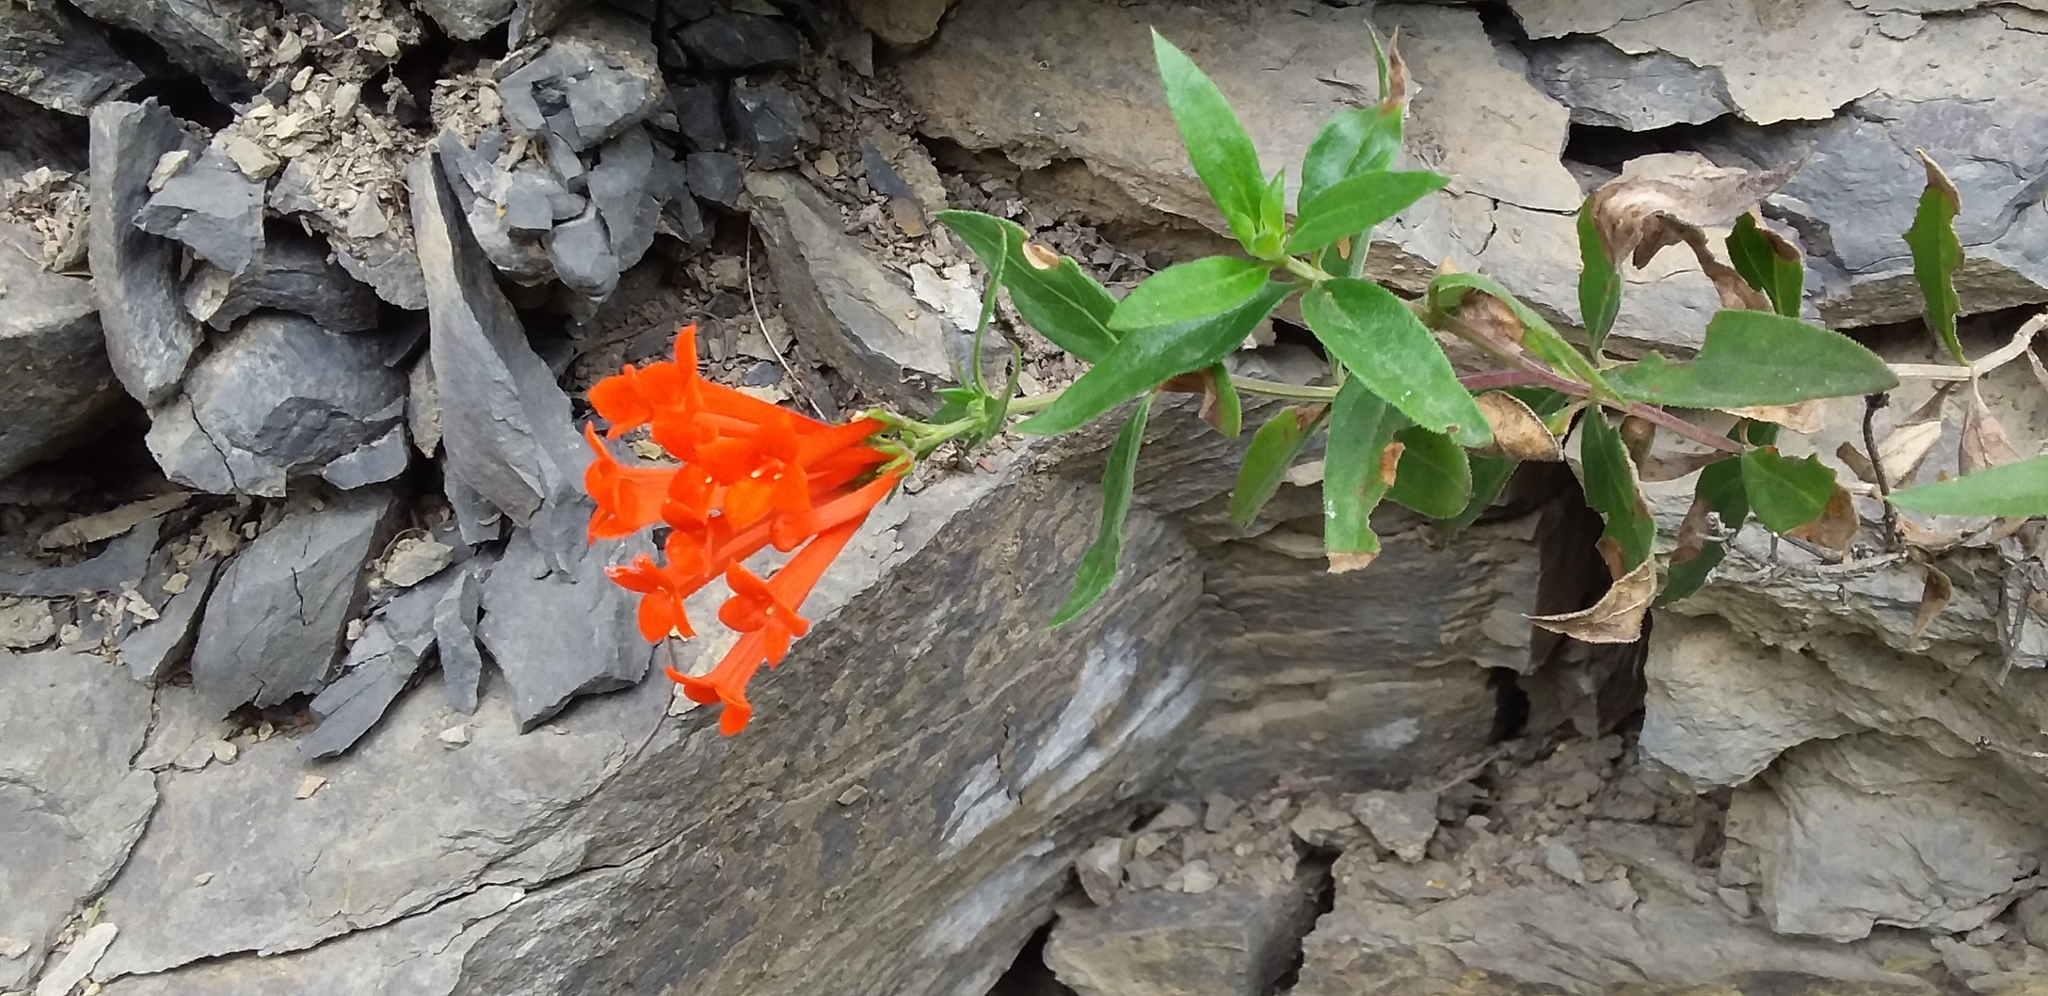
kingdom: Plantae
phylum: Tracheophyta
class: Magnoliopsida
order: Gentianales
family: Rubiaceae
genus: Bouvardia
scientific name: Bouvardia ternifolia
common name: Scarlet bouvardia
